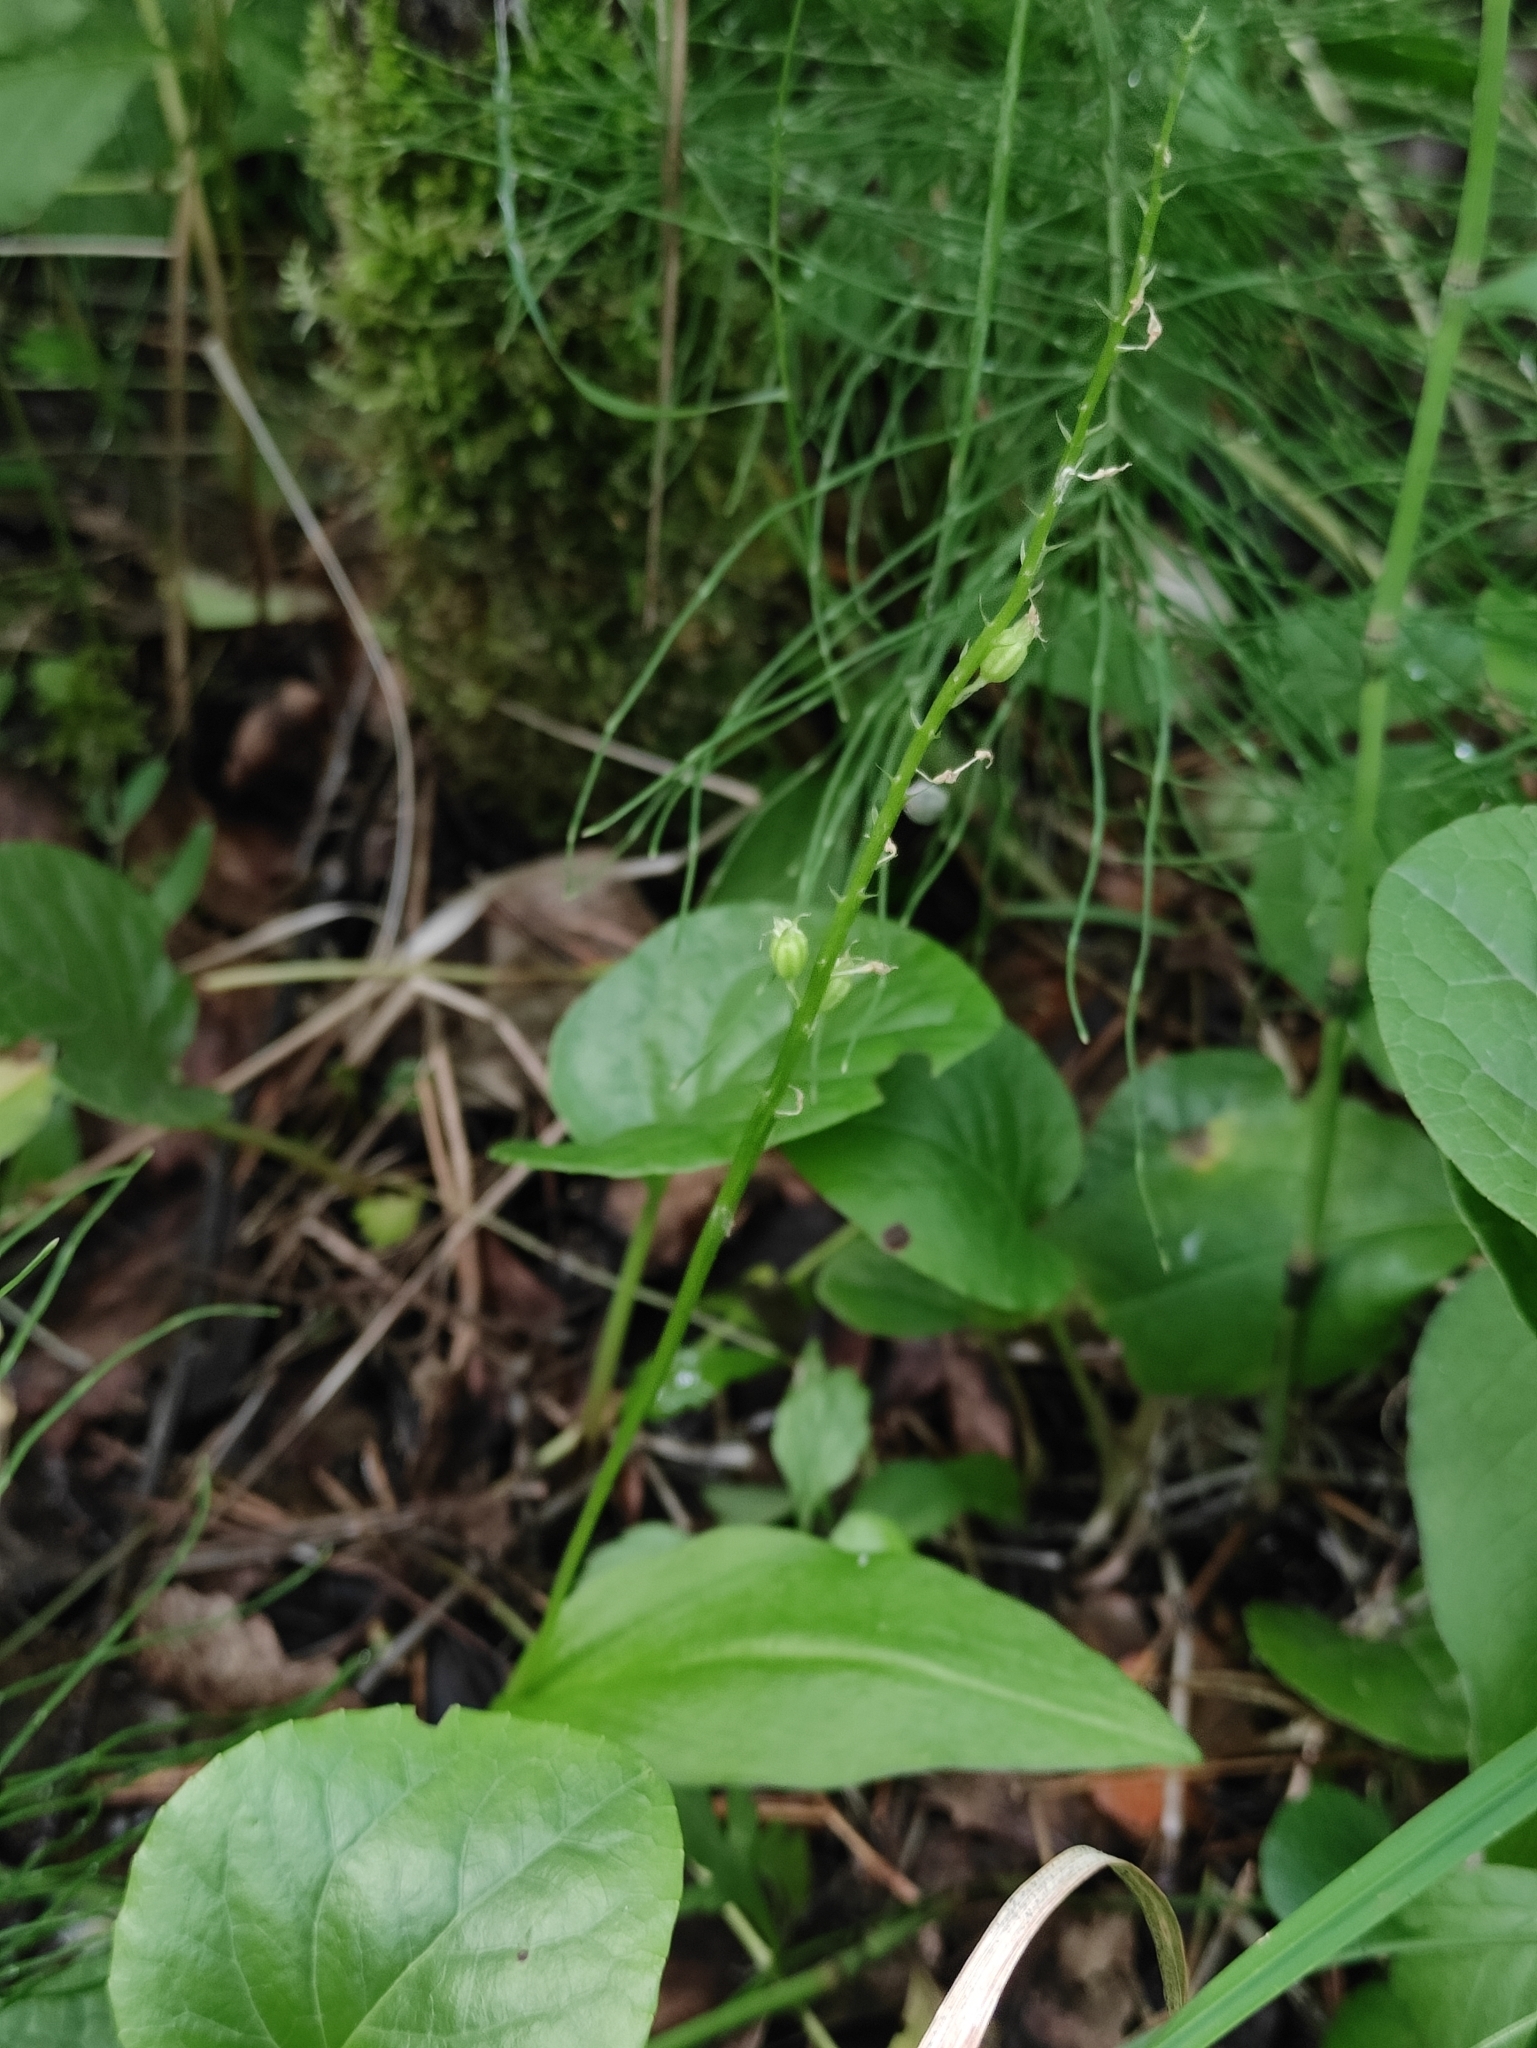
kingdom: Plantae
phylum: Tracheophyta
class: Liliopsida
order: Asparagales
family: Orchidaceae
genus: Malaxis
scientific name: Malaxis monophyllos
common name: White adder's-mouth
